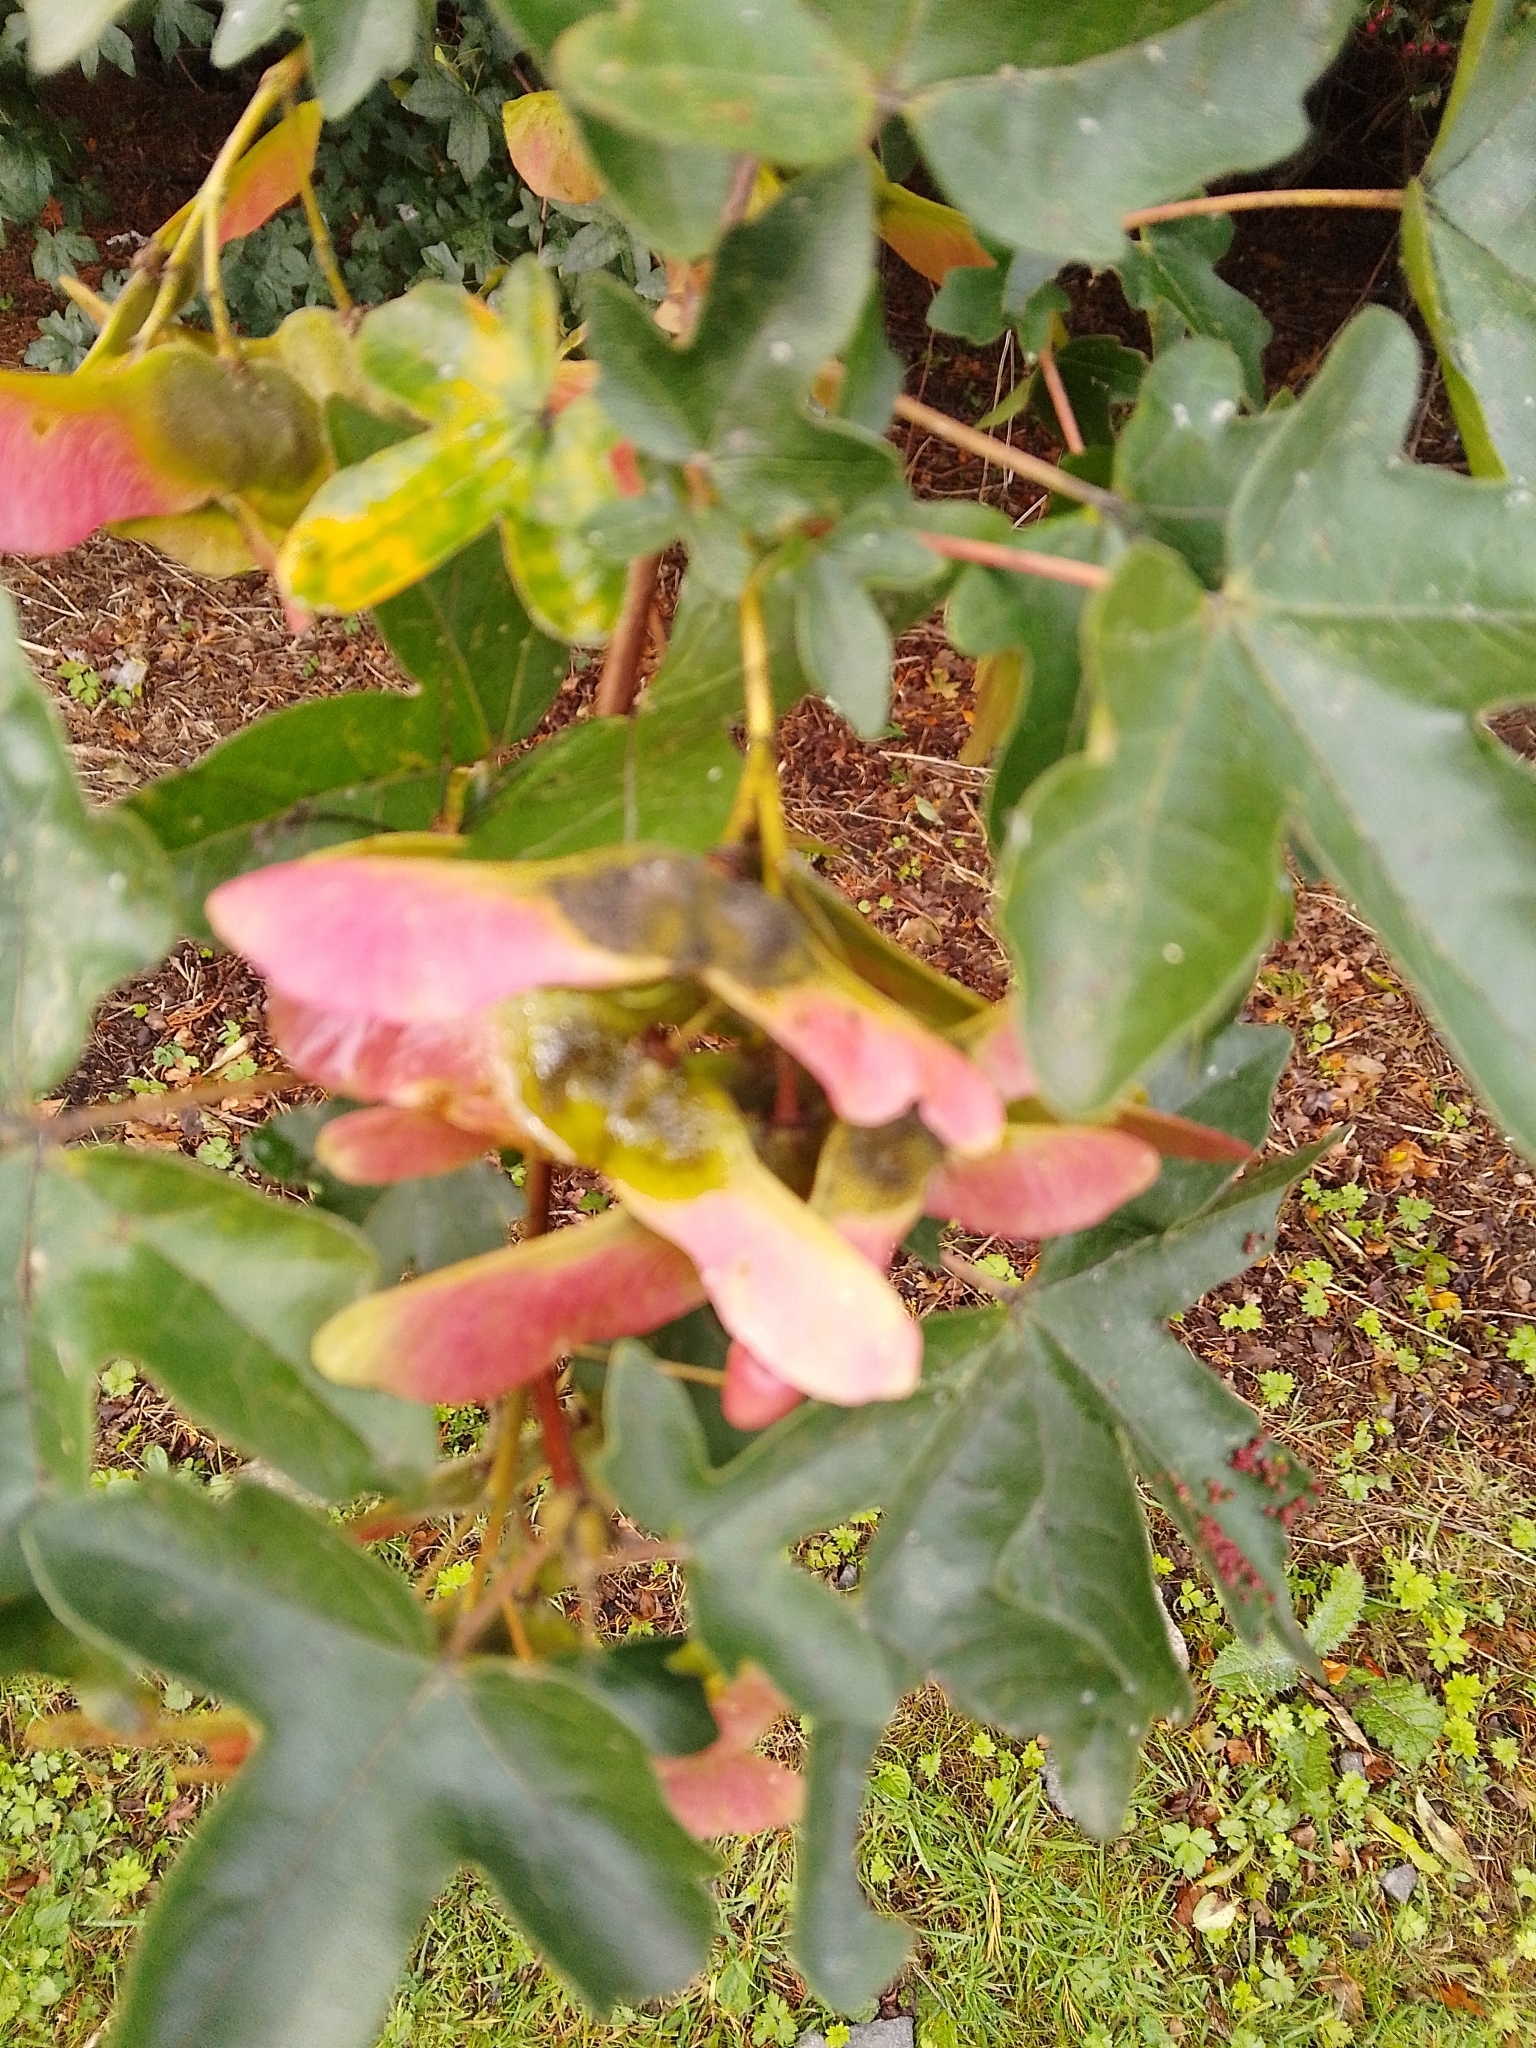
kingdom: Plantae
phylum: Tracheophyta
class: Magnoliopsida
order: Sapindales
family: Sapindaceae
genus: Acer
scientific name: Acer campestre
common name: Field maple
